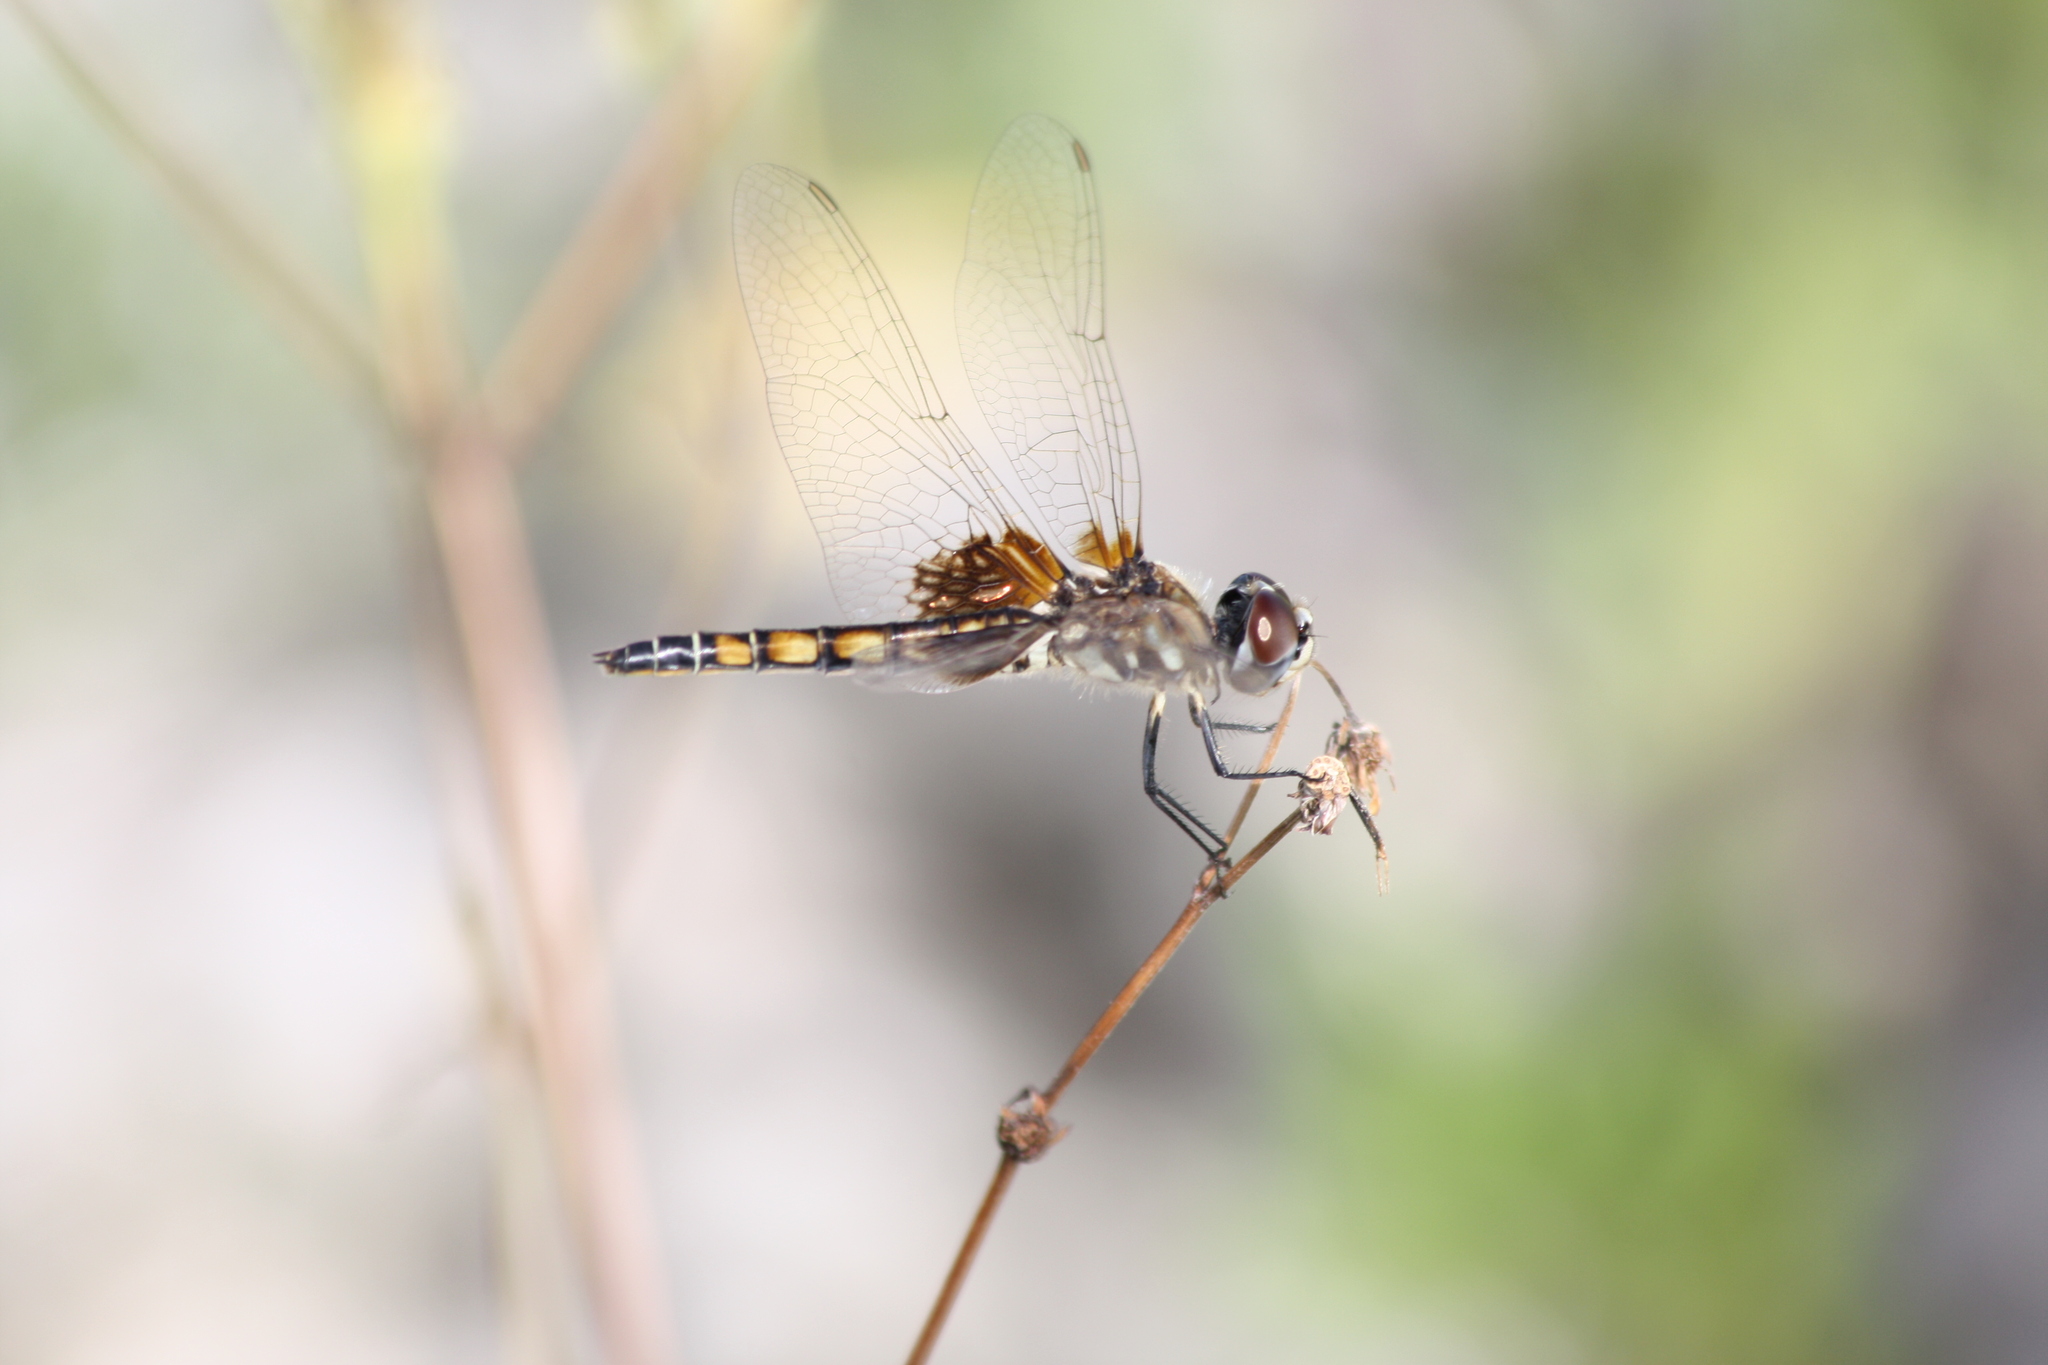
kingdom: Animalia
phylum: Arthropoda
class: Insecta
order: Odonata
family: Libellulidae
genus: Macrodiplax
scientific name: Macrodiplax balteata
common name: Marl pennant
